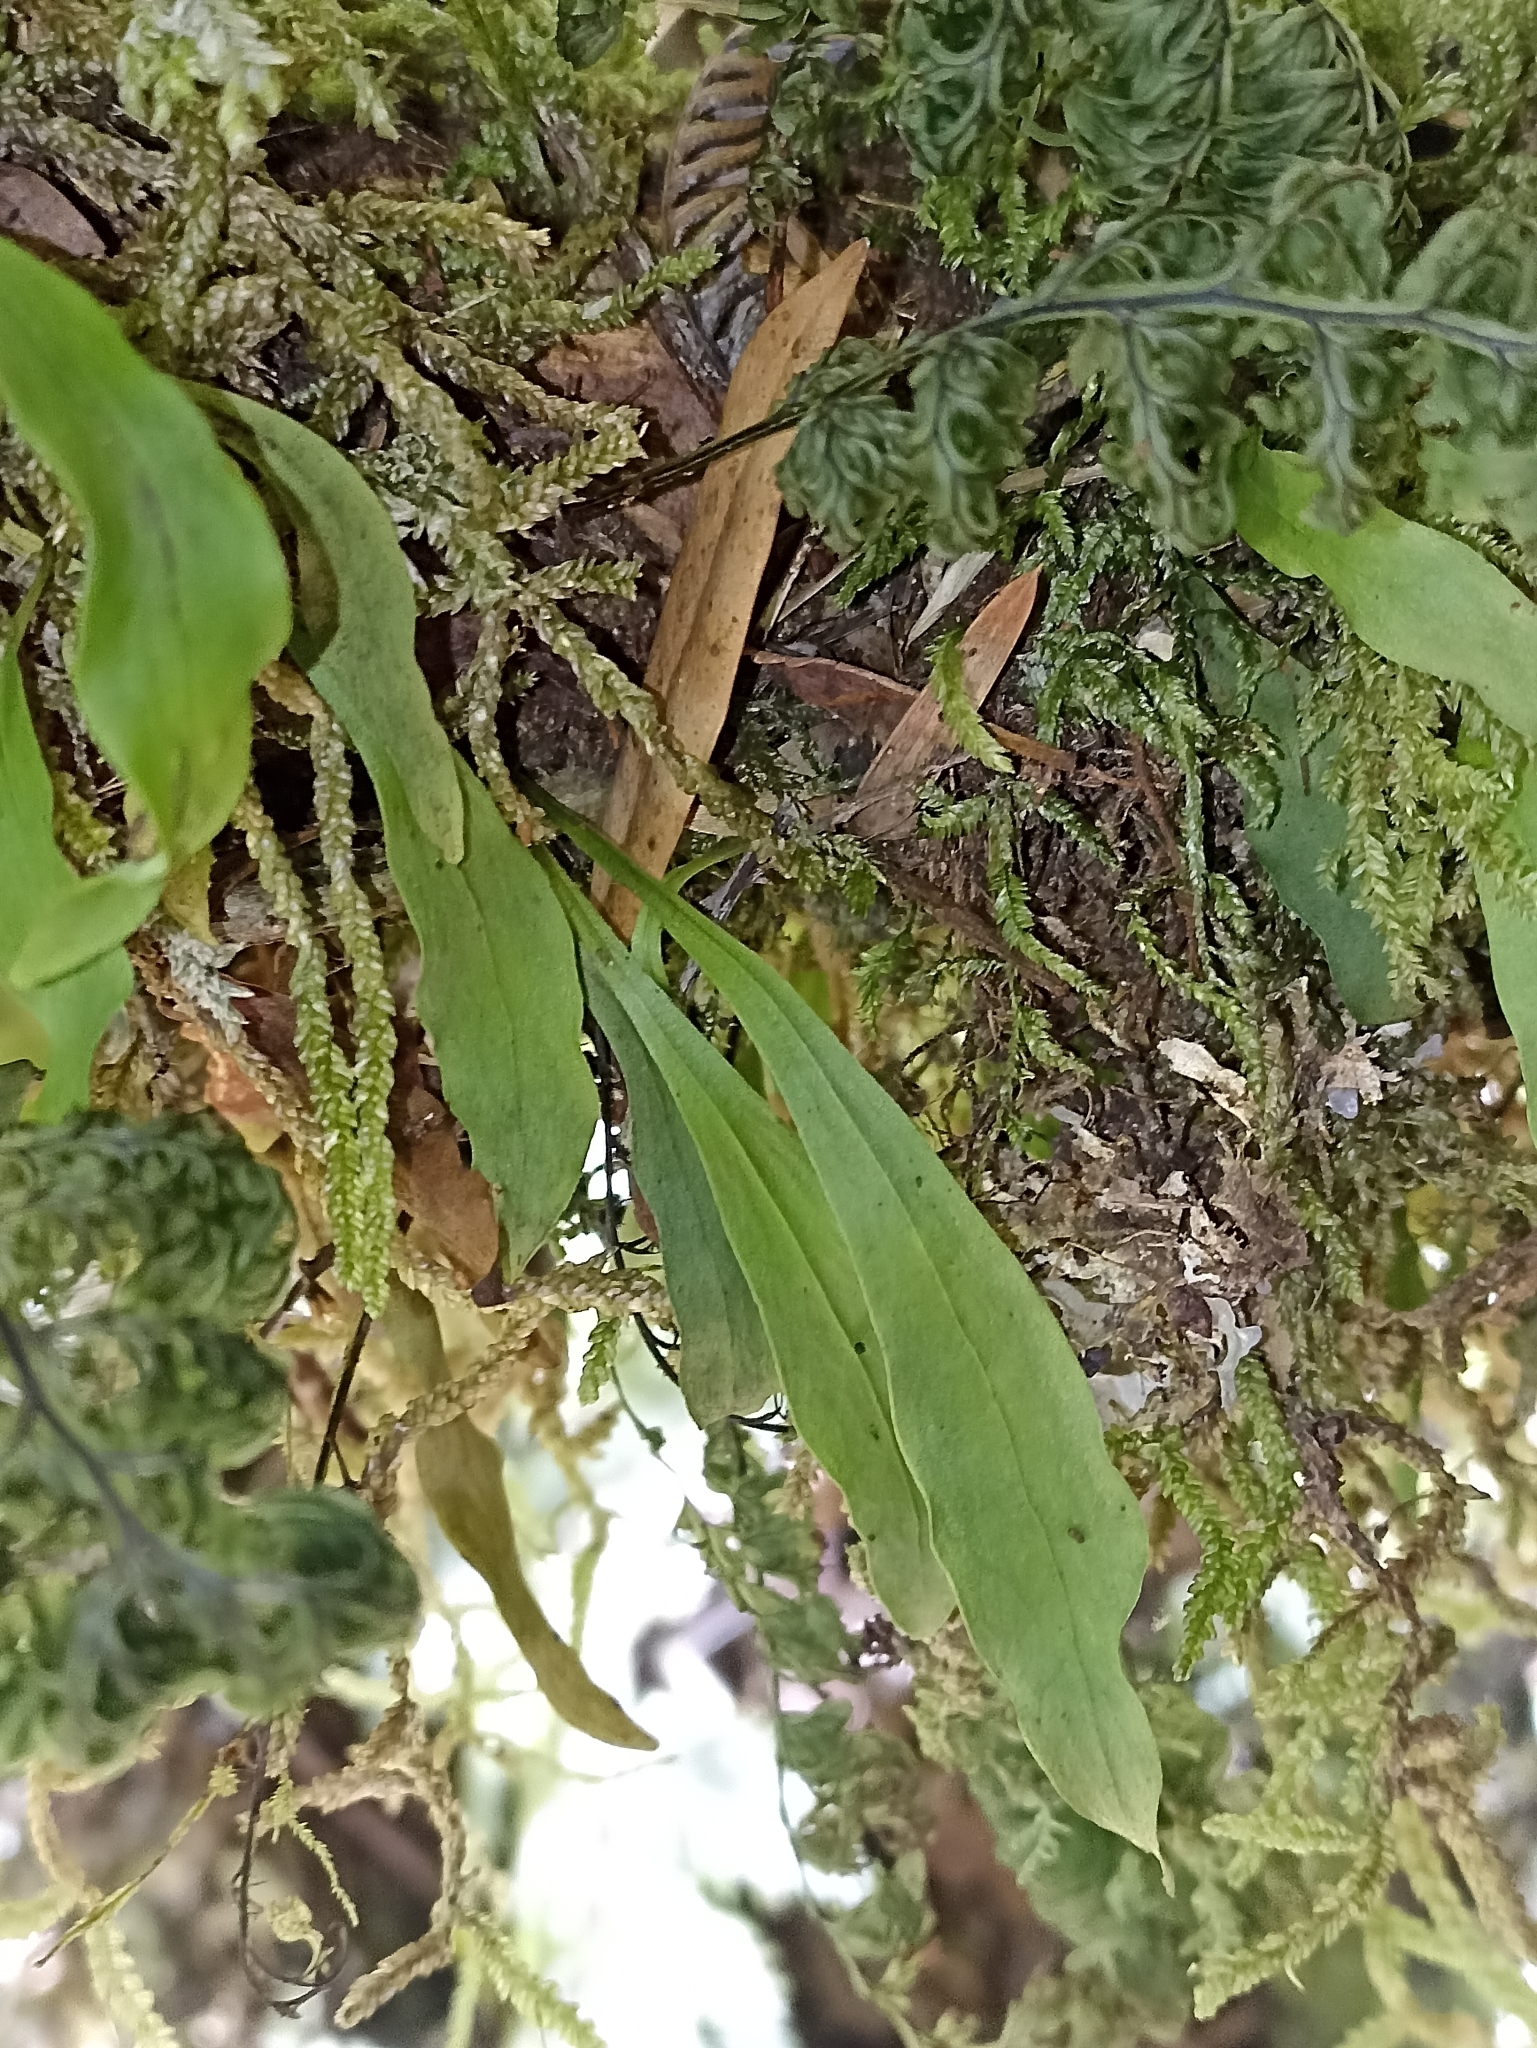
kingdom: Plantae
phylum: Tracheophyta
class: Polypodiopsida
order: Polypodiales
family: Polypodiaceae
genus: Loxogramme
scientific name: Loxogramme dictyopteris
